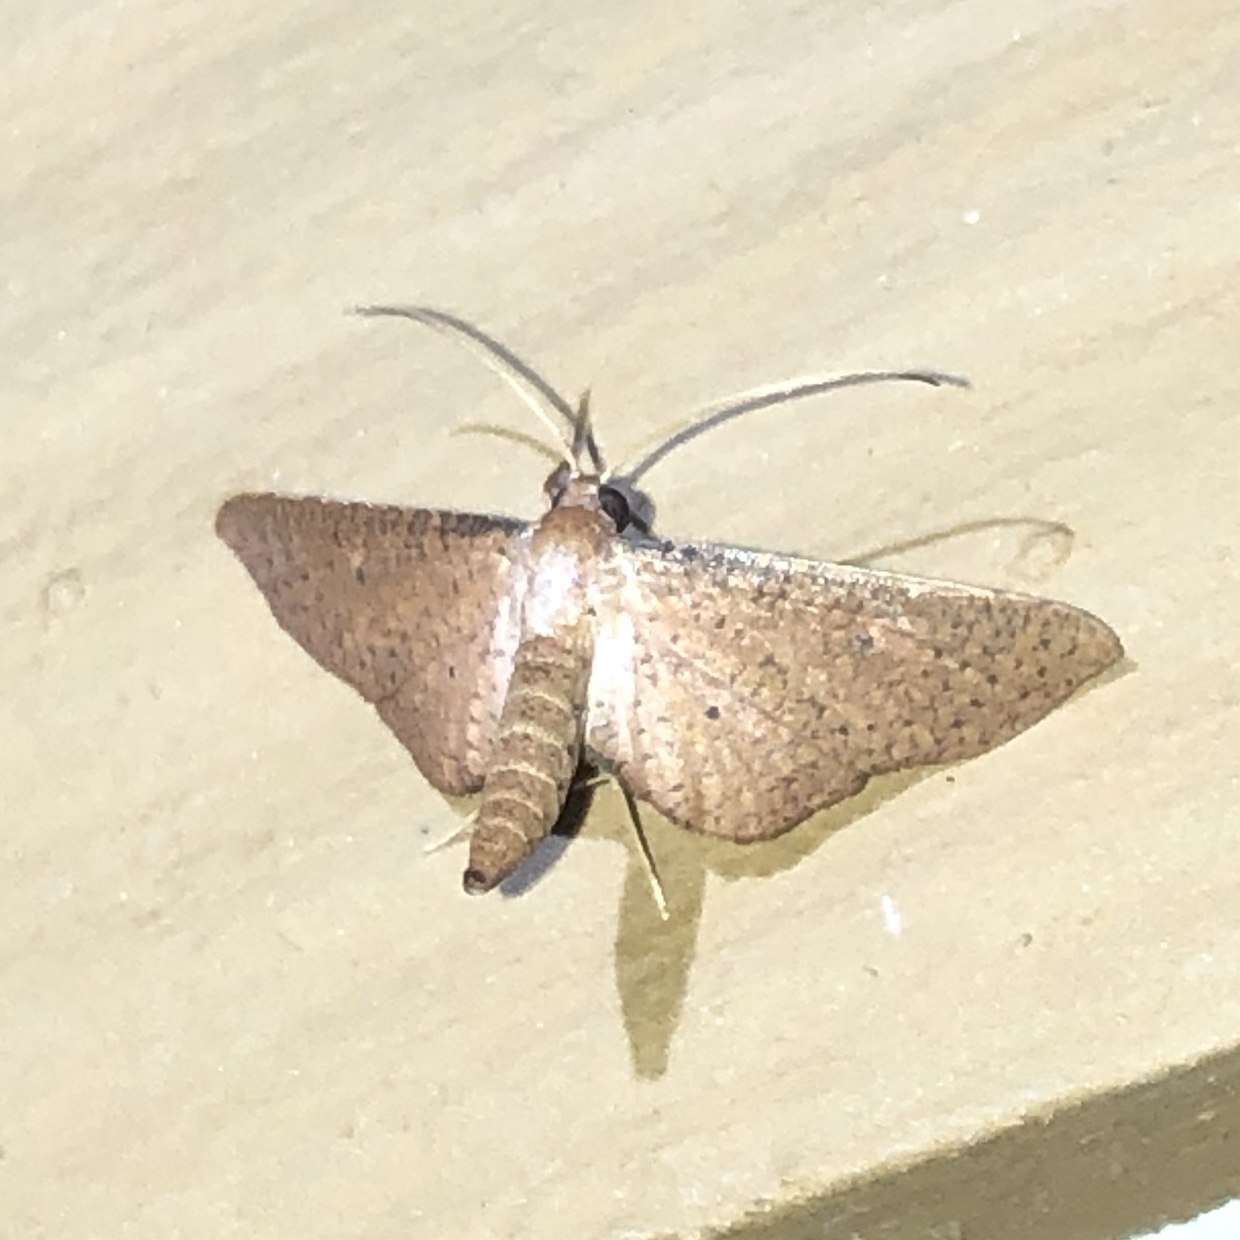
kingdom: Animalia
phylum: Arthropoda
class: Insecta
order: Lepidoptera
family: Thyrididae
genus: Loxiorhiza
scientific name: Loxiorhiza unitula
